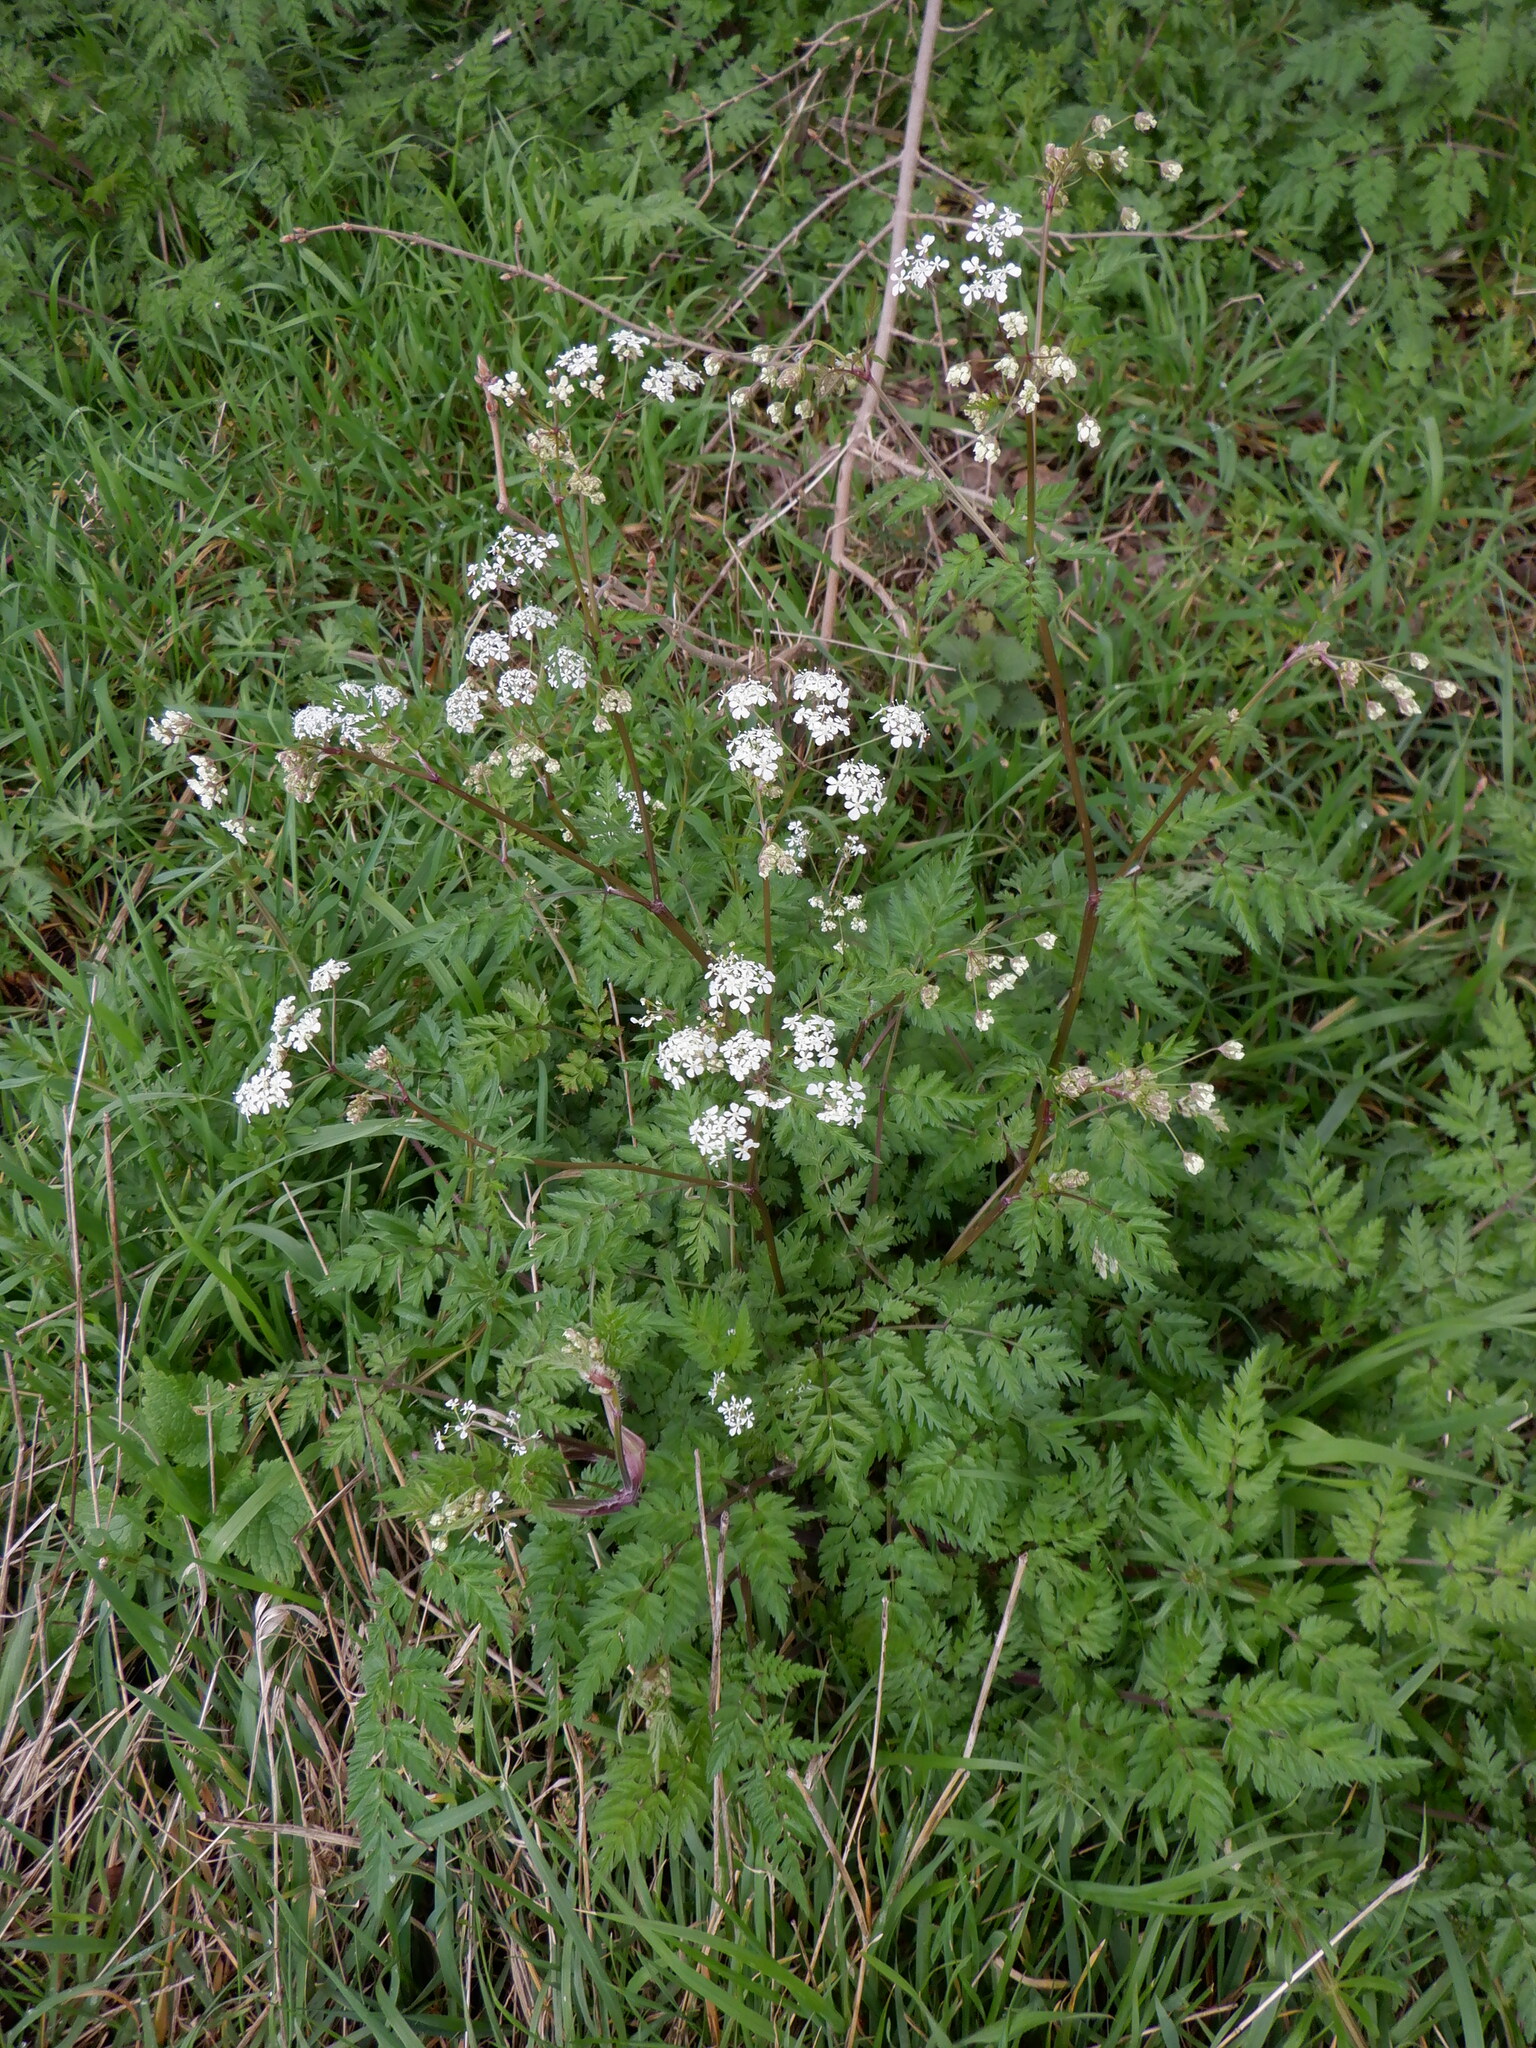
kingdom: Plantae
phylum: Tracheophyta
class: Magnoliopsida
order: Apiales
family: Apiaceae
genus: Anthriscus
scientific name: Anthriscus sylvestris
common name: Cow parsley
